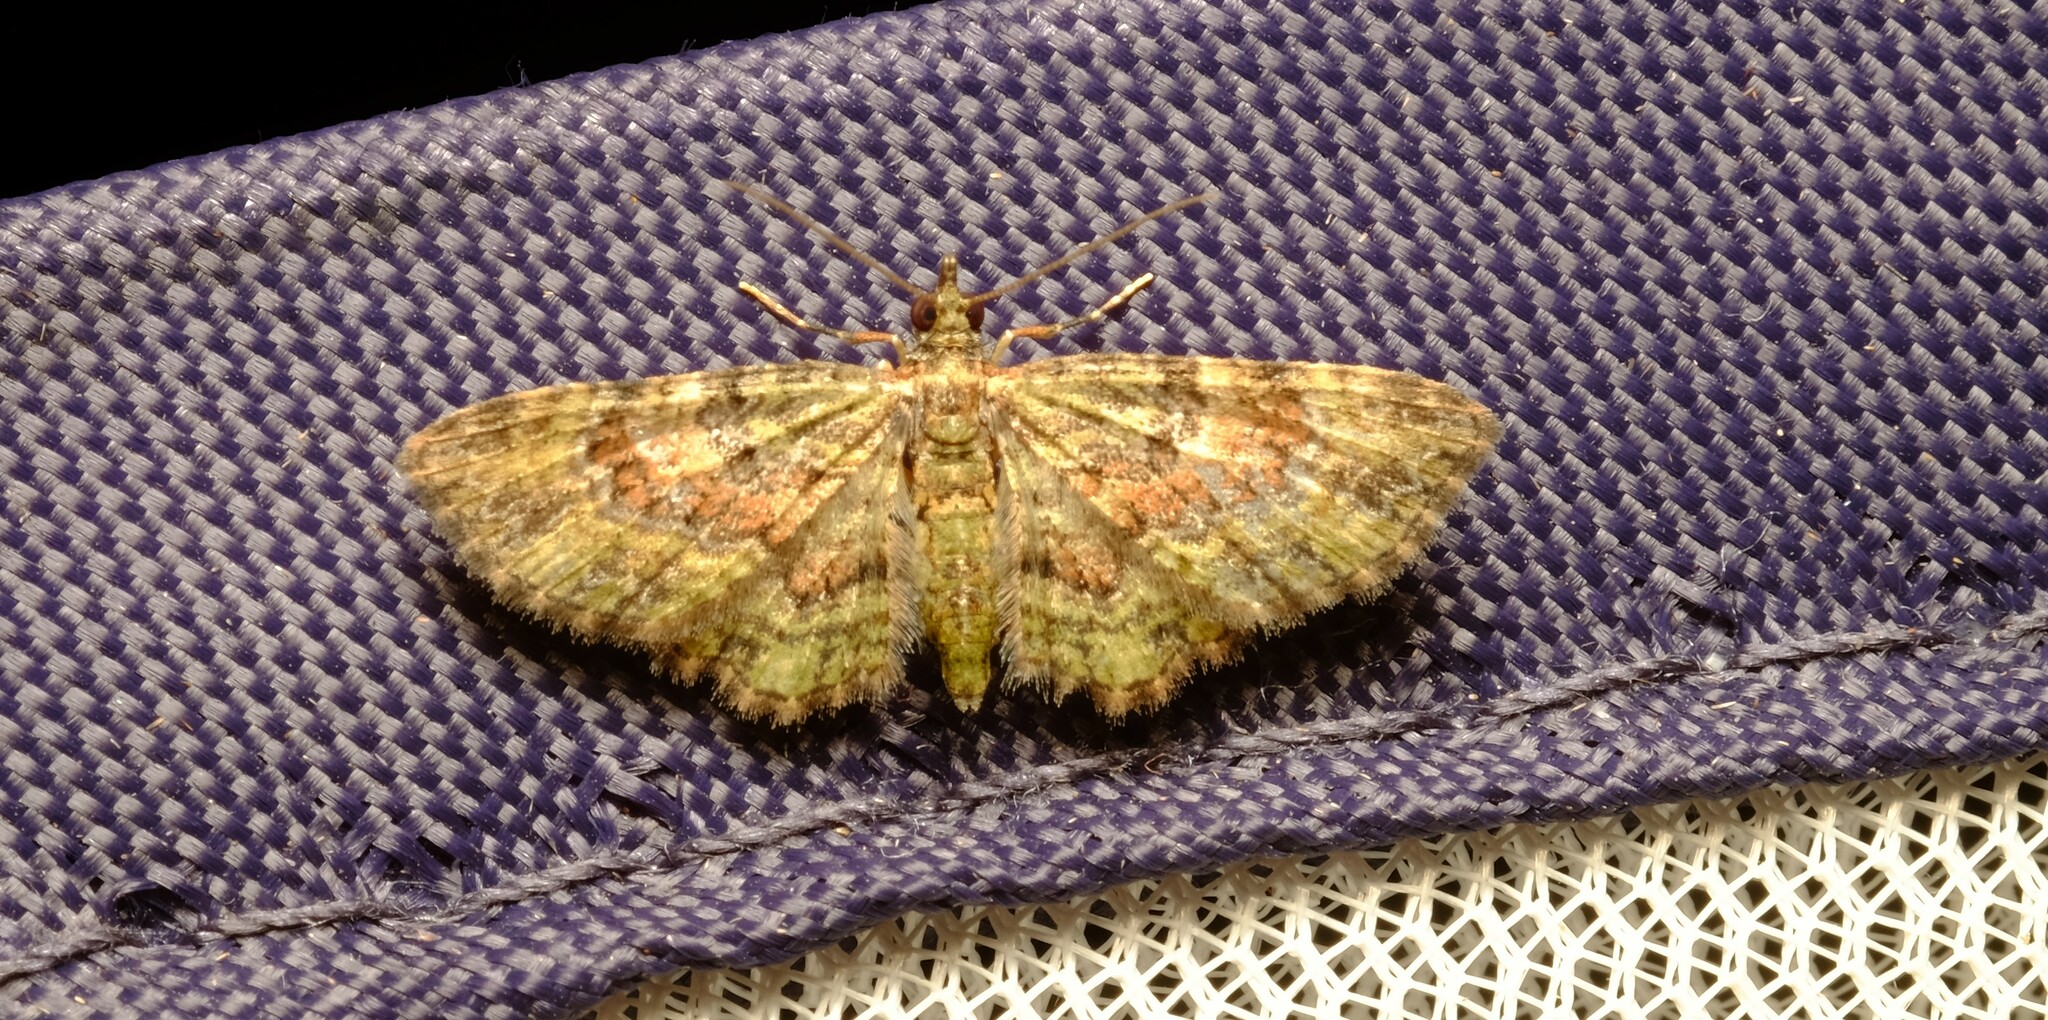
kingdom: Animalia
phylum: Arthropoda
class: Insecta
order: Lepidoptera
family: Geometridae
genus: Chloroclystis
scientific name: Chloroclystis catastreptes
